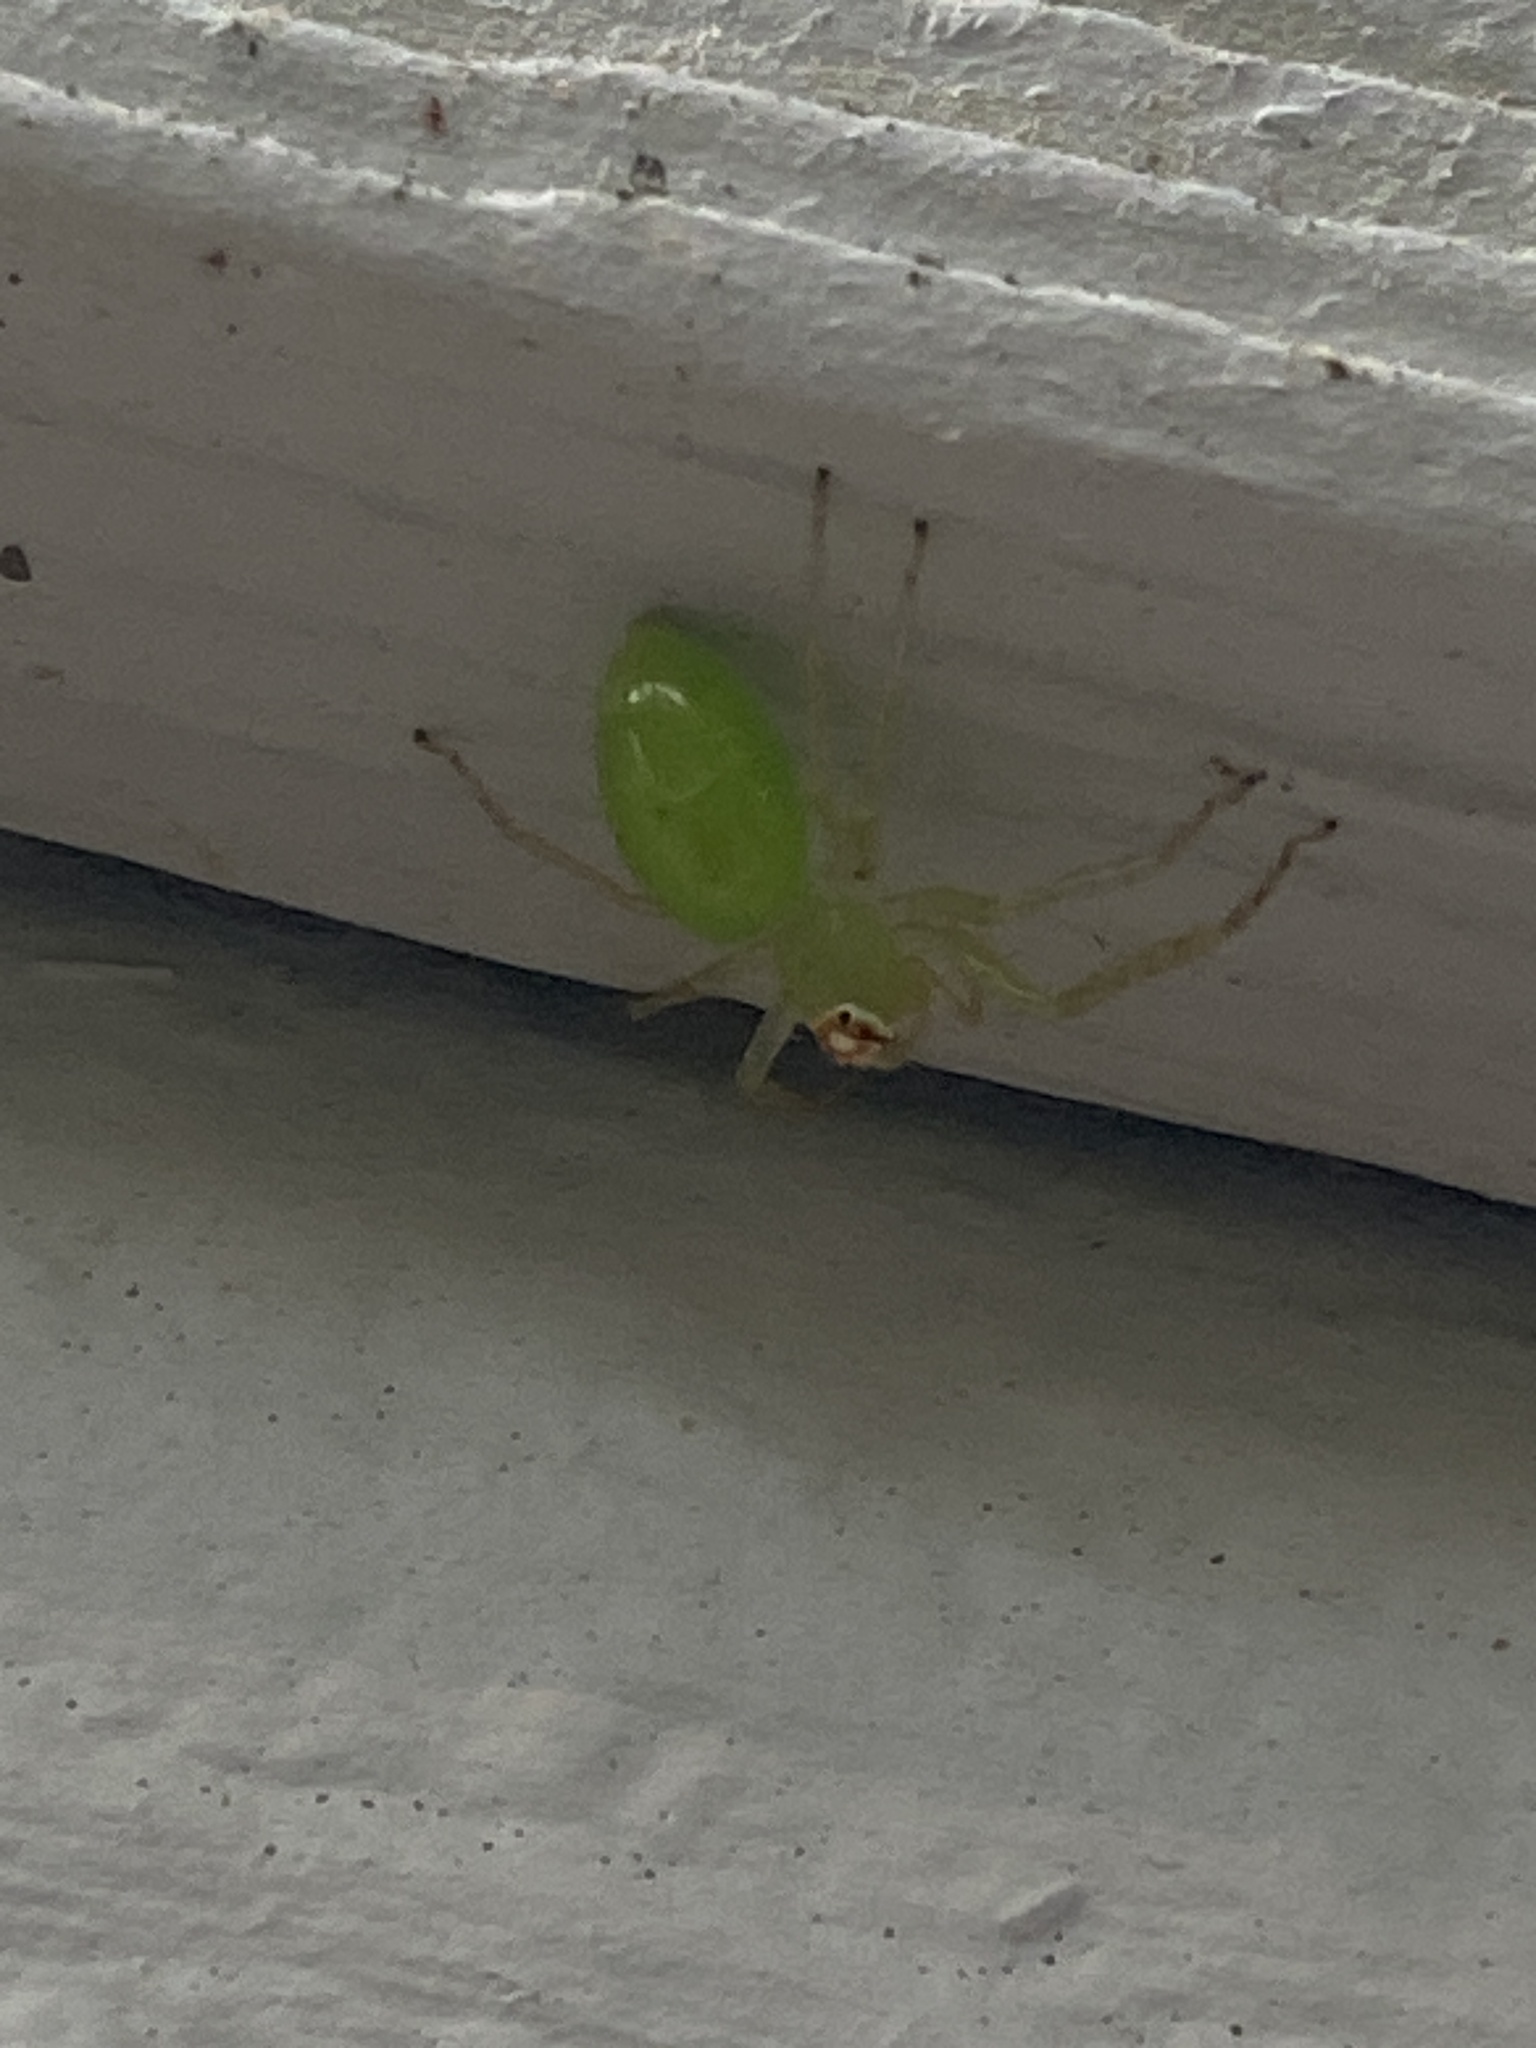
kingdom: Animalia
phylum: Arthropoda
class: Arachnida
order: Araneae
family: Salticidae
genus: Lyssomanes
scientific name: Lyssomanes viridis
